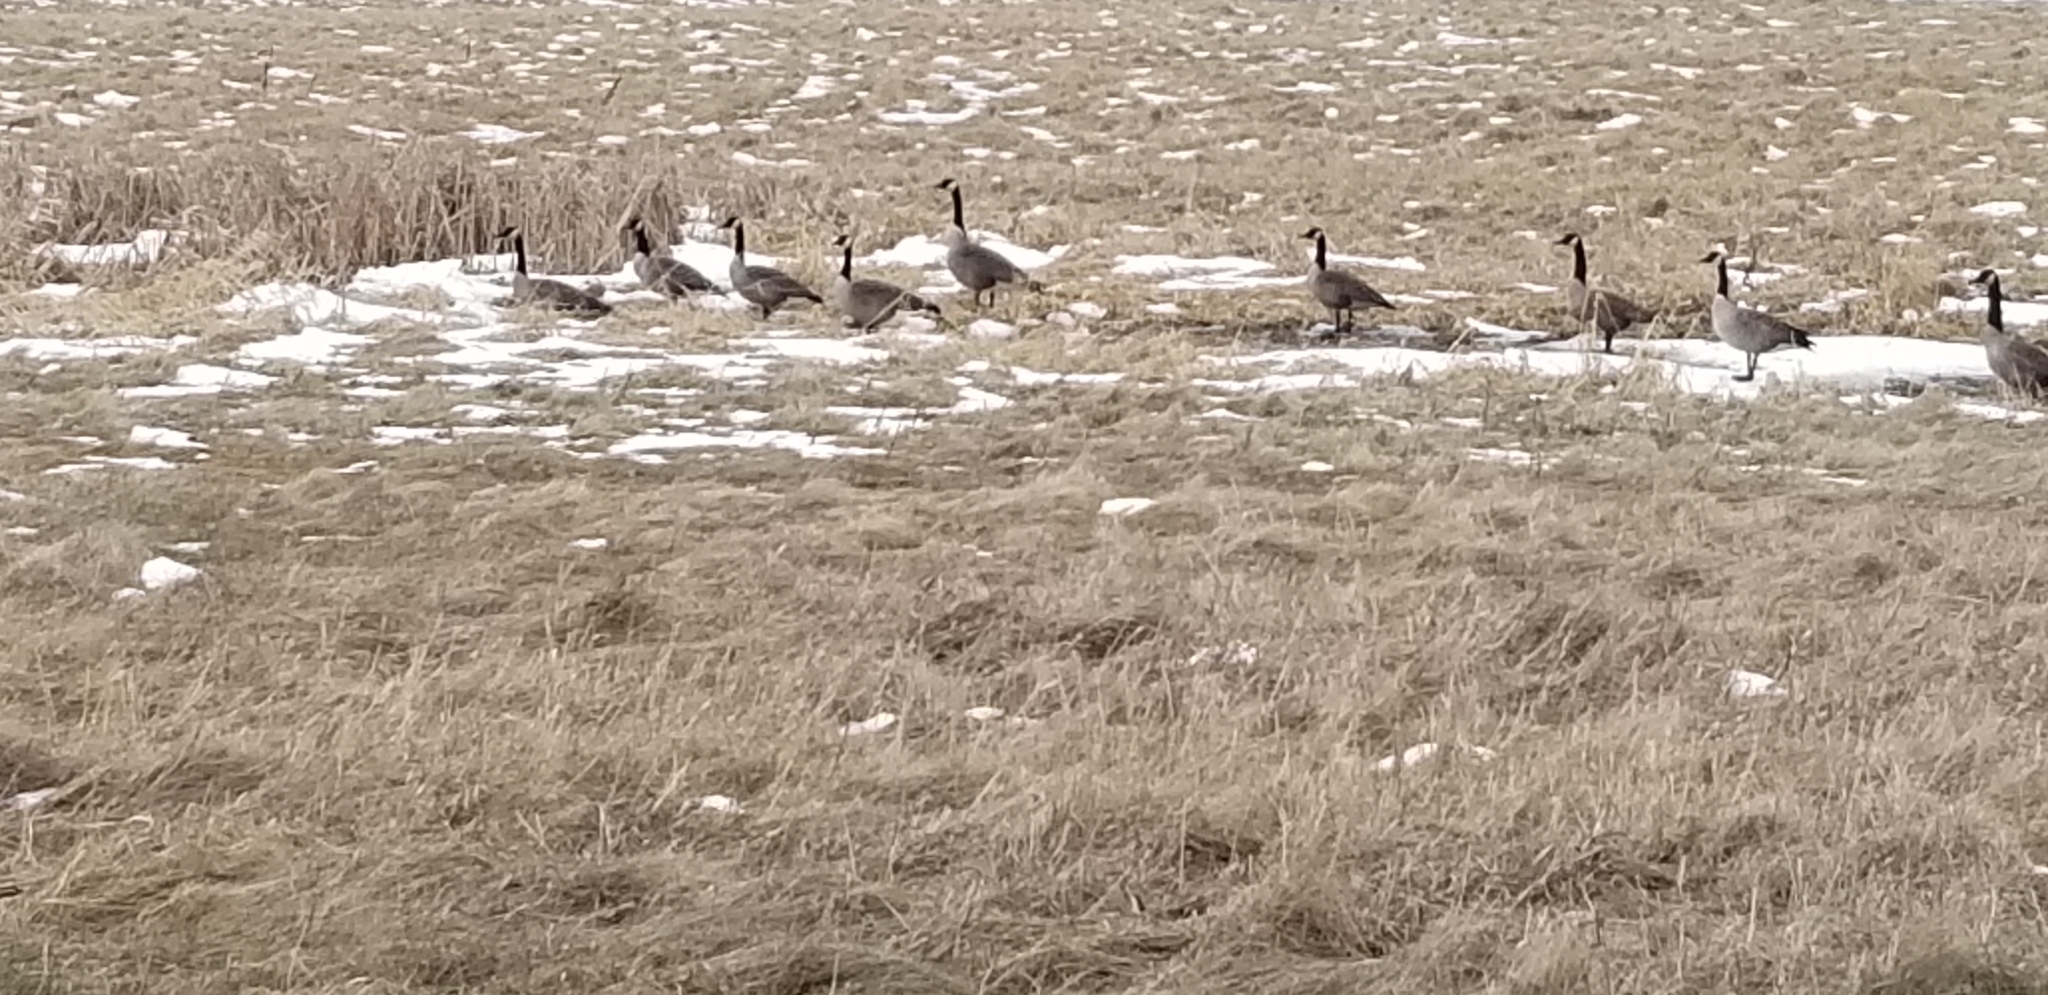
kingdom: Animalia
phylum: Chordata
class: Aves
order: Anseriformes
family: Anatidae
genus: Branta
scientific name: Branta canadensis
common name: Canada goose
